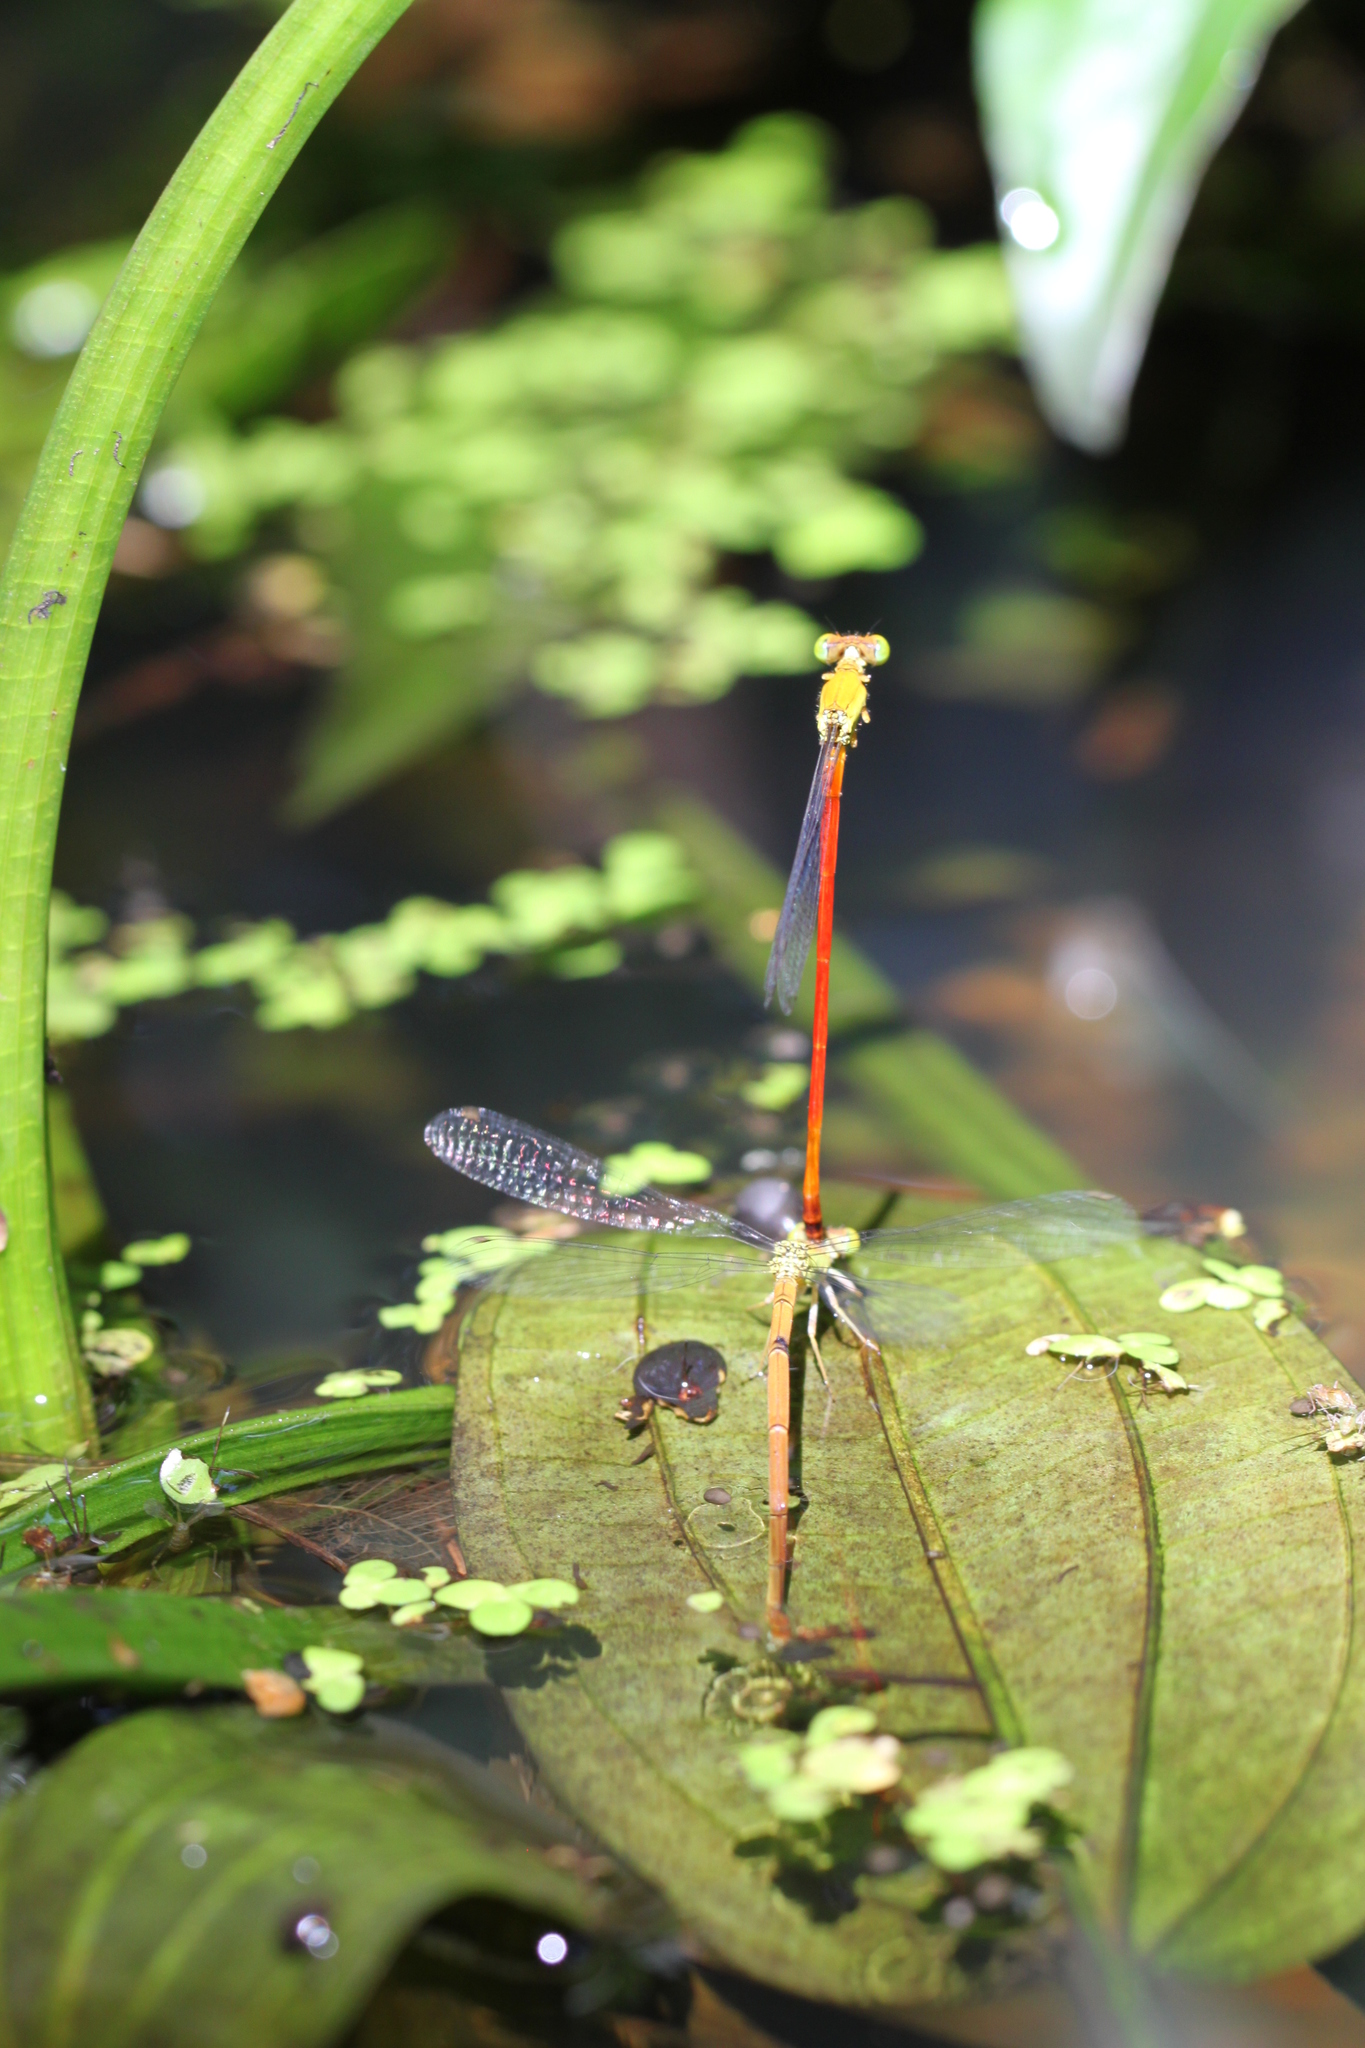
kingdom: Animalia
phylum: Arthropoda
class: Insecta
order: Odonata
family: Coenagrionidae
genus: Ceriagrion
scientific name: Ceriagrion chaoi
